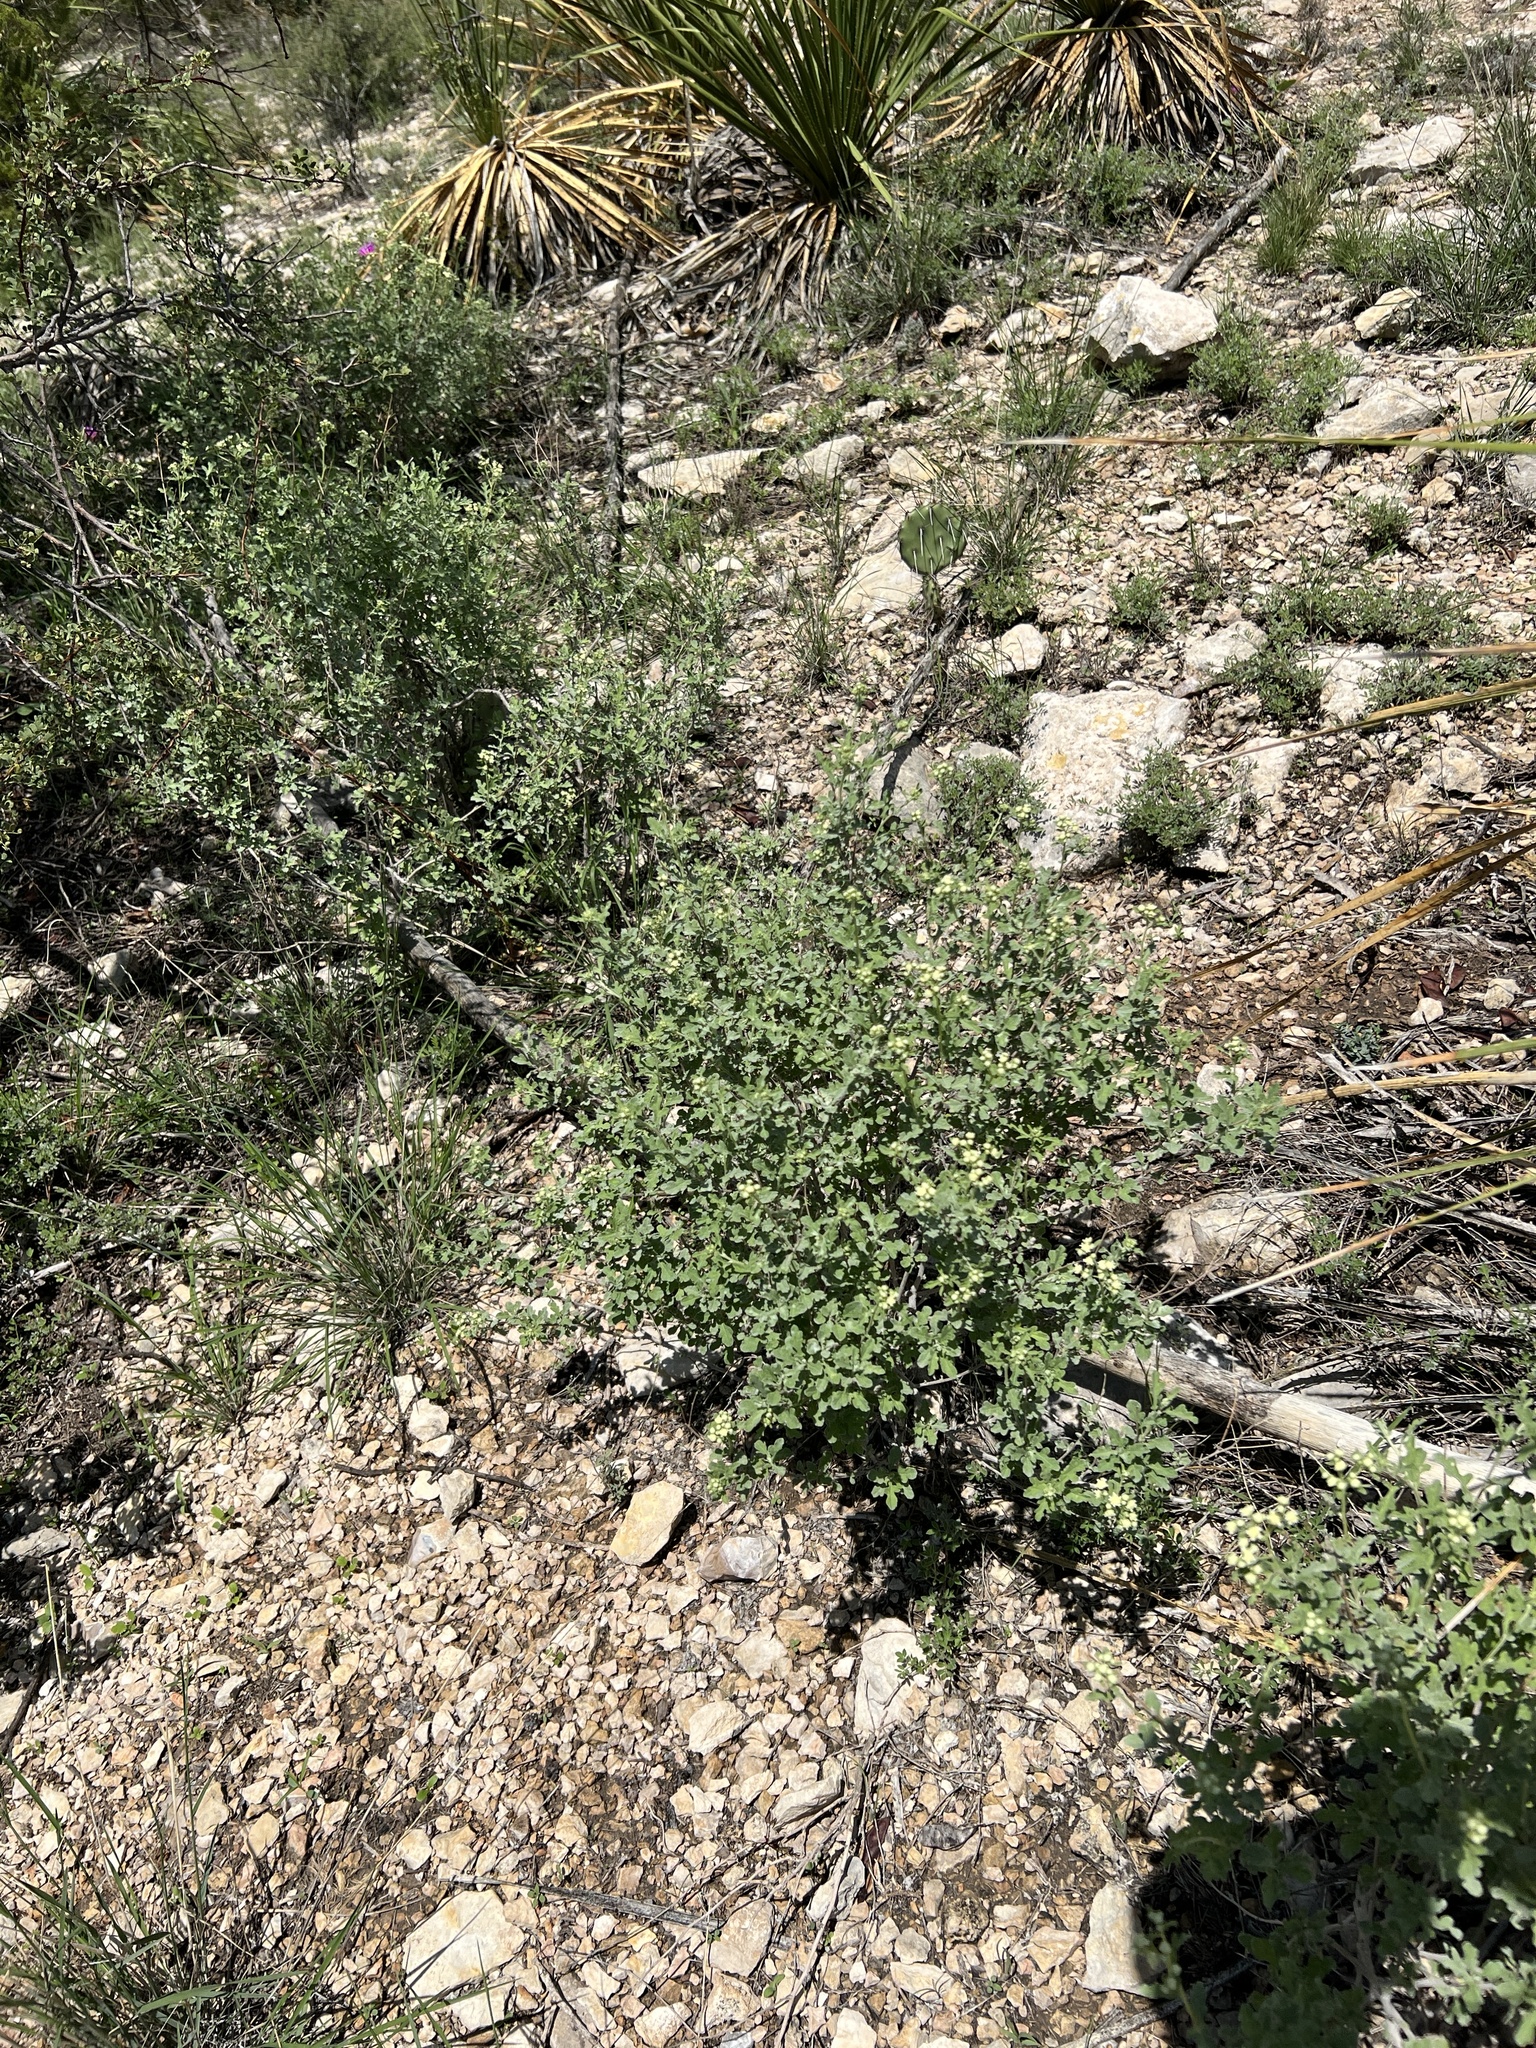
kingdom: Plantae
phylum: Tracheophyta
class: Magnoliopsida
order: Asterales
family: Asteraceae
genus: Parthenium
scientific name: Parthenium incanum
